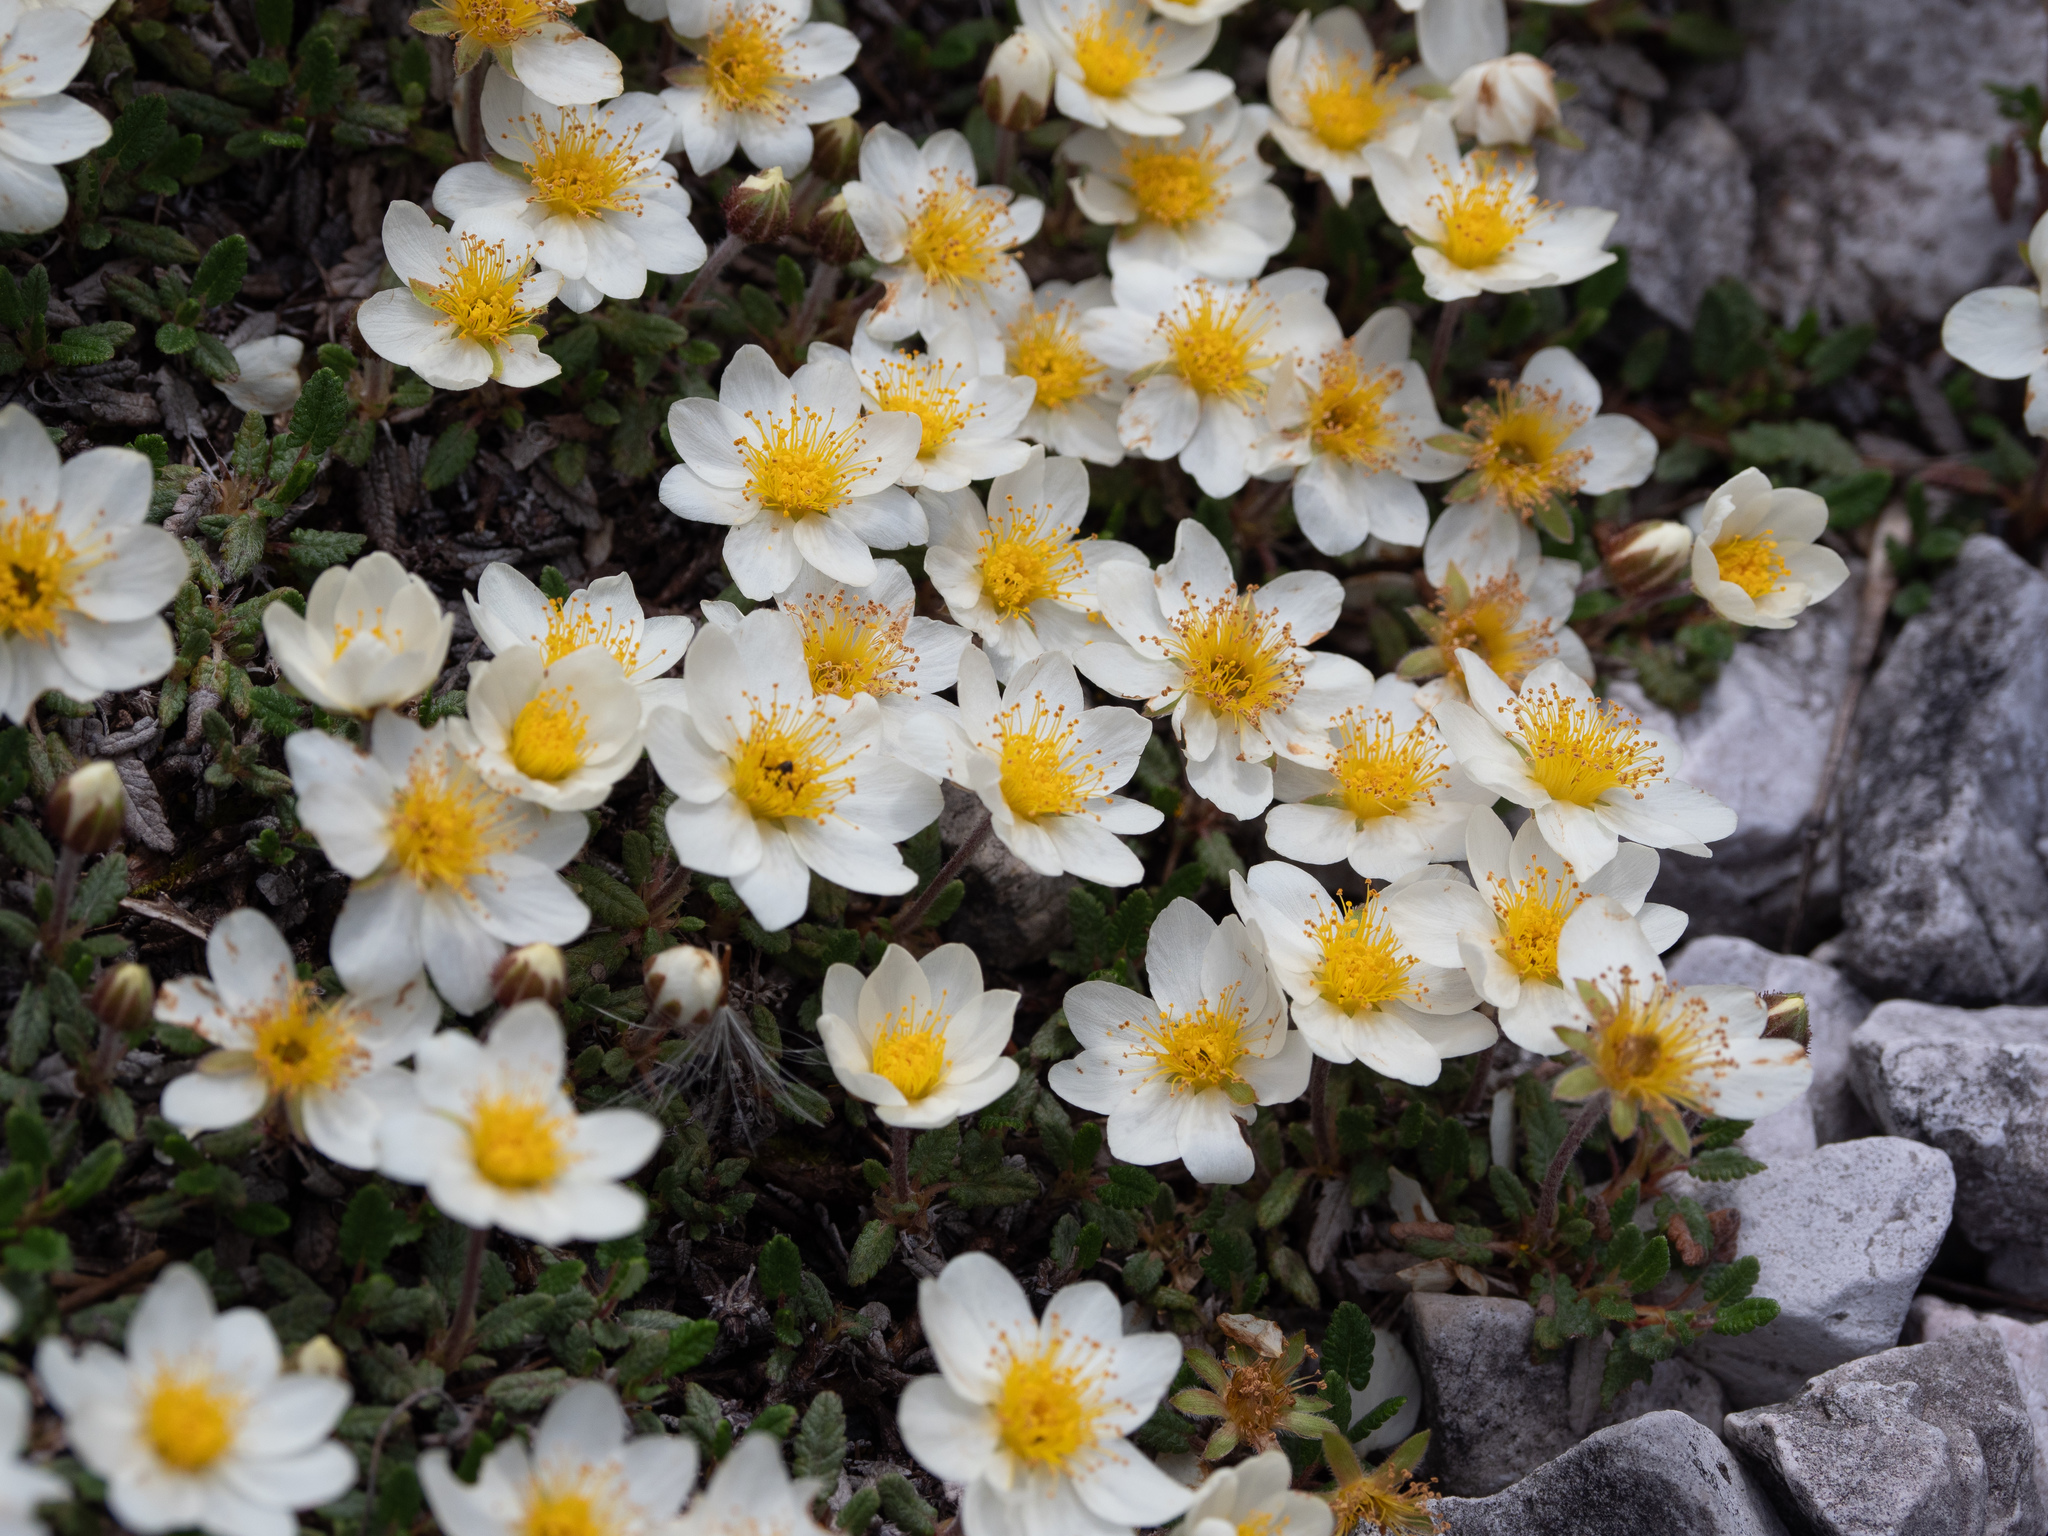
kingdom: Plantae
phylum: Tracheophyta
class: Magnoliopsida
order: Rosales
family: Rosaceae
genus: Dryas
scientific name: Dryas octopetala
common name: Eight-petal mountain-avens
